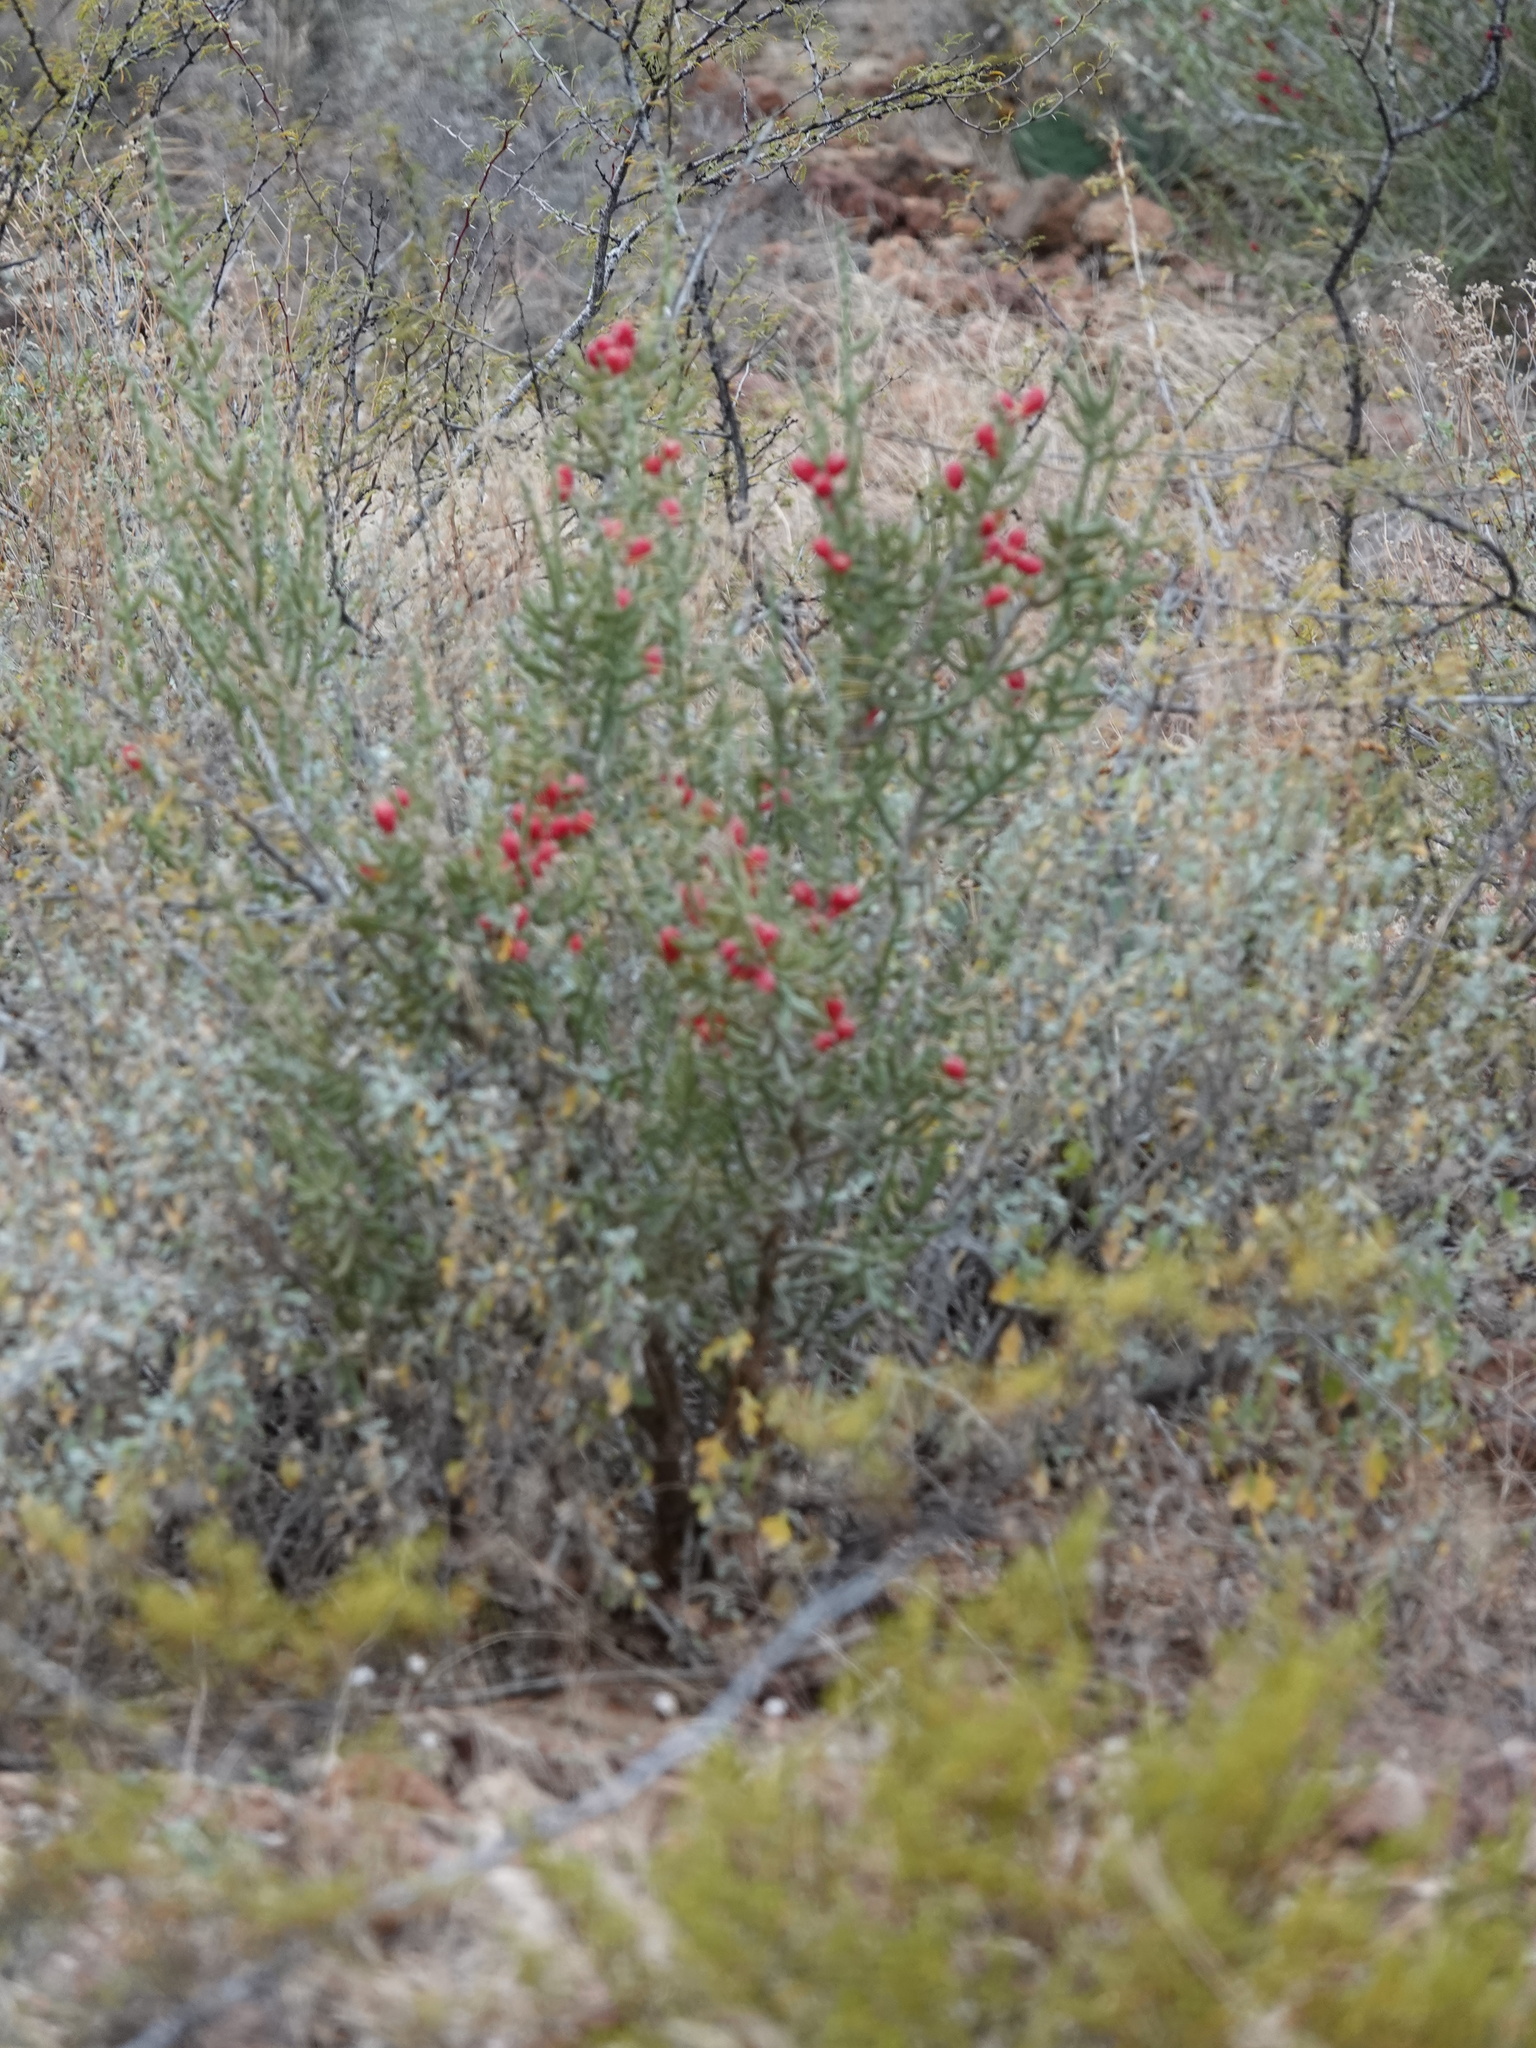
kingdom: Plantae
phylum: Tracheophyta
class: Magnoliopsida
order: Caryophyllales
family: Cactaceae
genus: Cylindropuntia
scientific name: Cylindropuntia leptocaulis
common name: Christmas cactus
